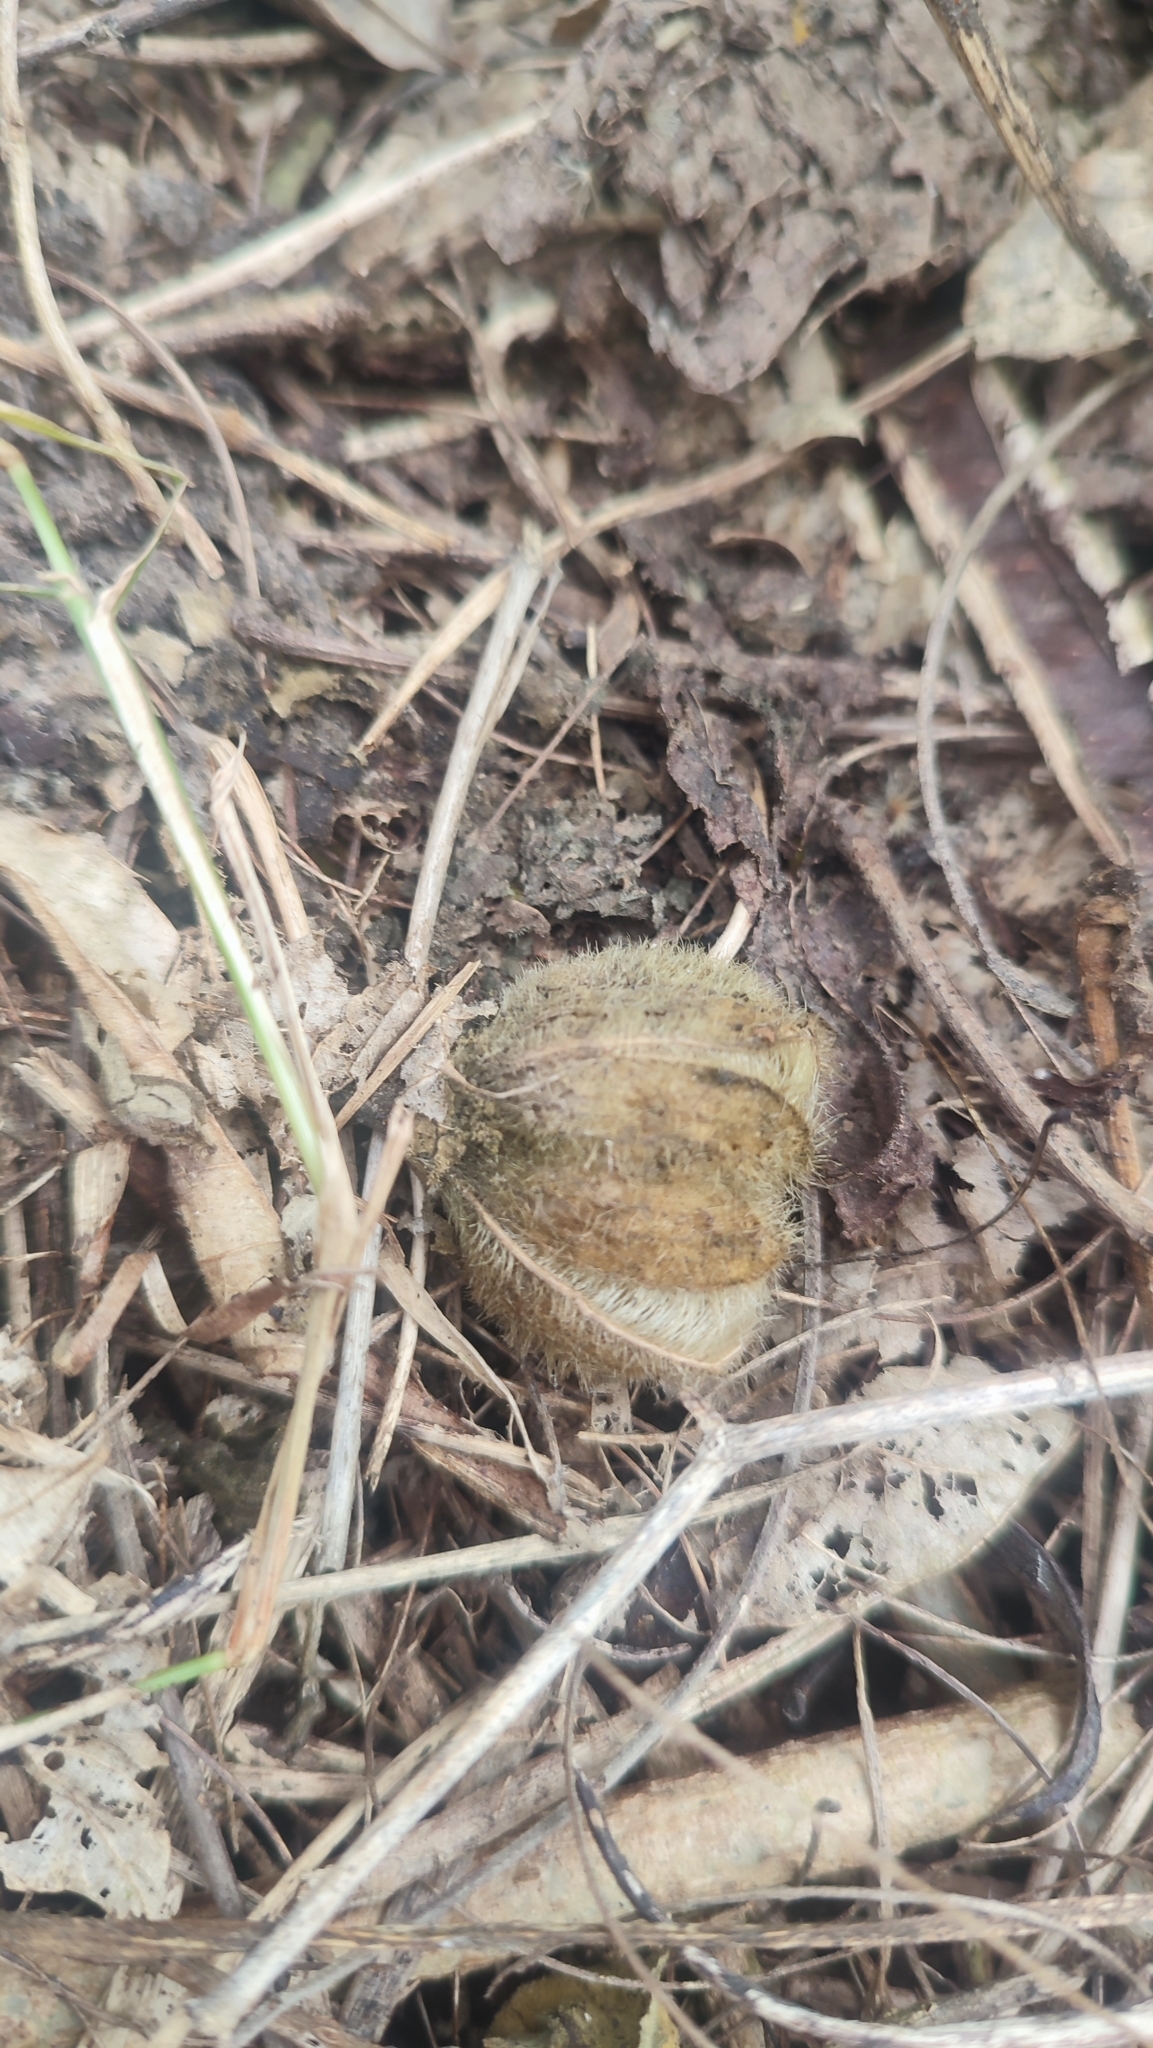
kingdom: Plantae
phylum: Tracheophyta
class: Magnoliopsida
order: Malvales
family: Malvaceae
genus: Hibiscus
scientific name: Hibiscus taiwanensis
